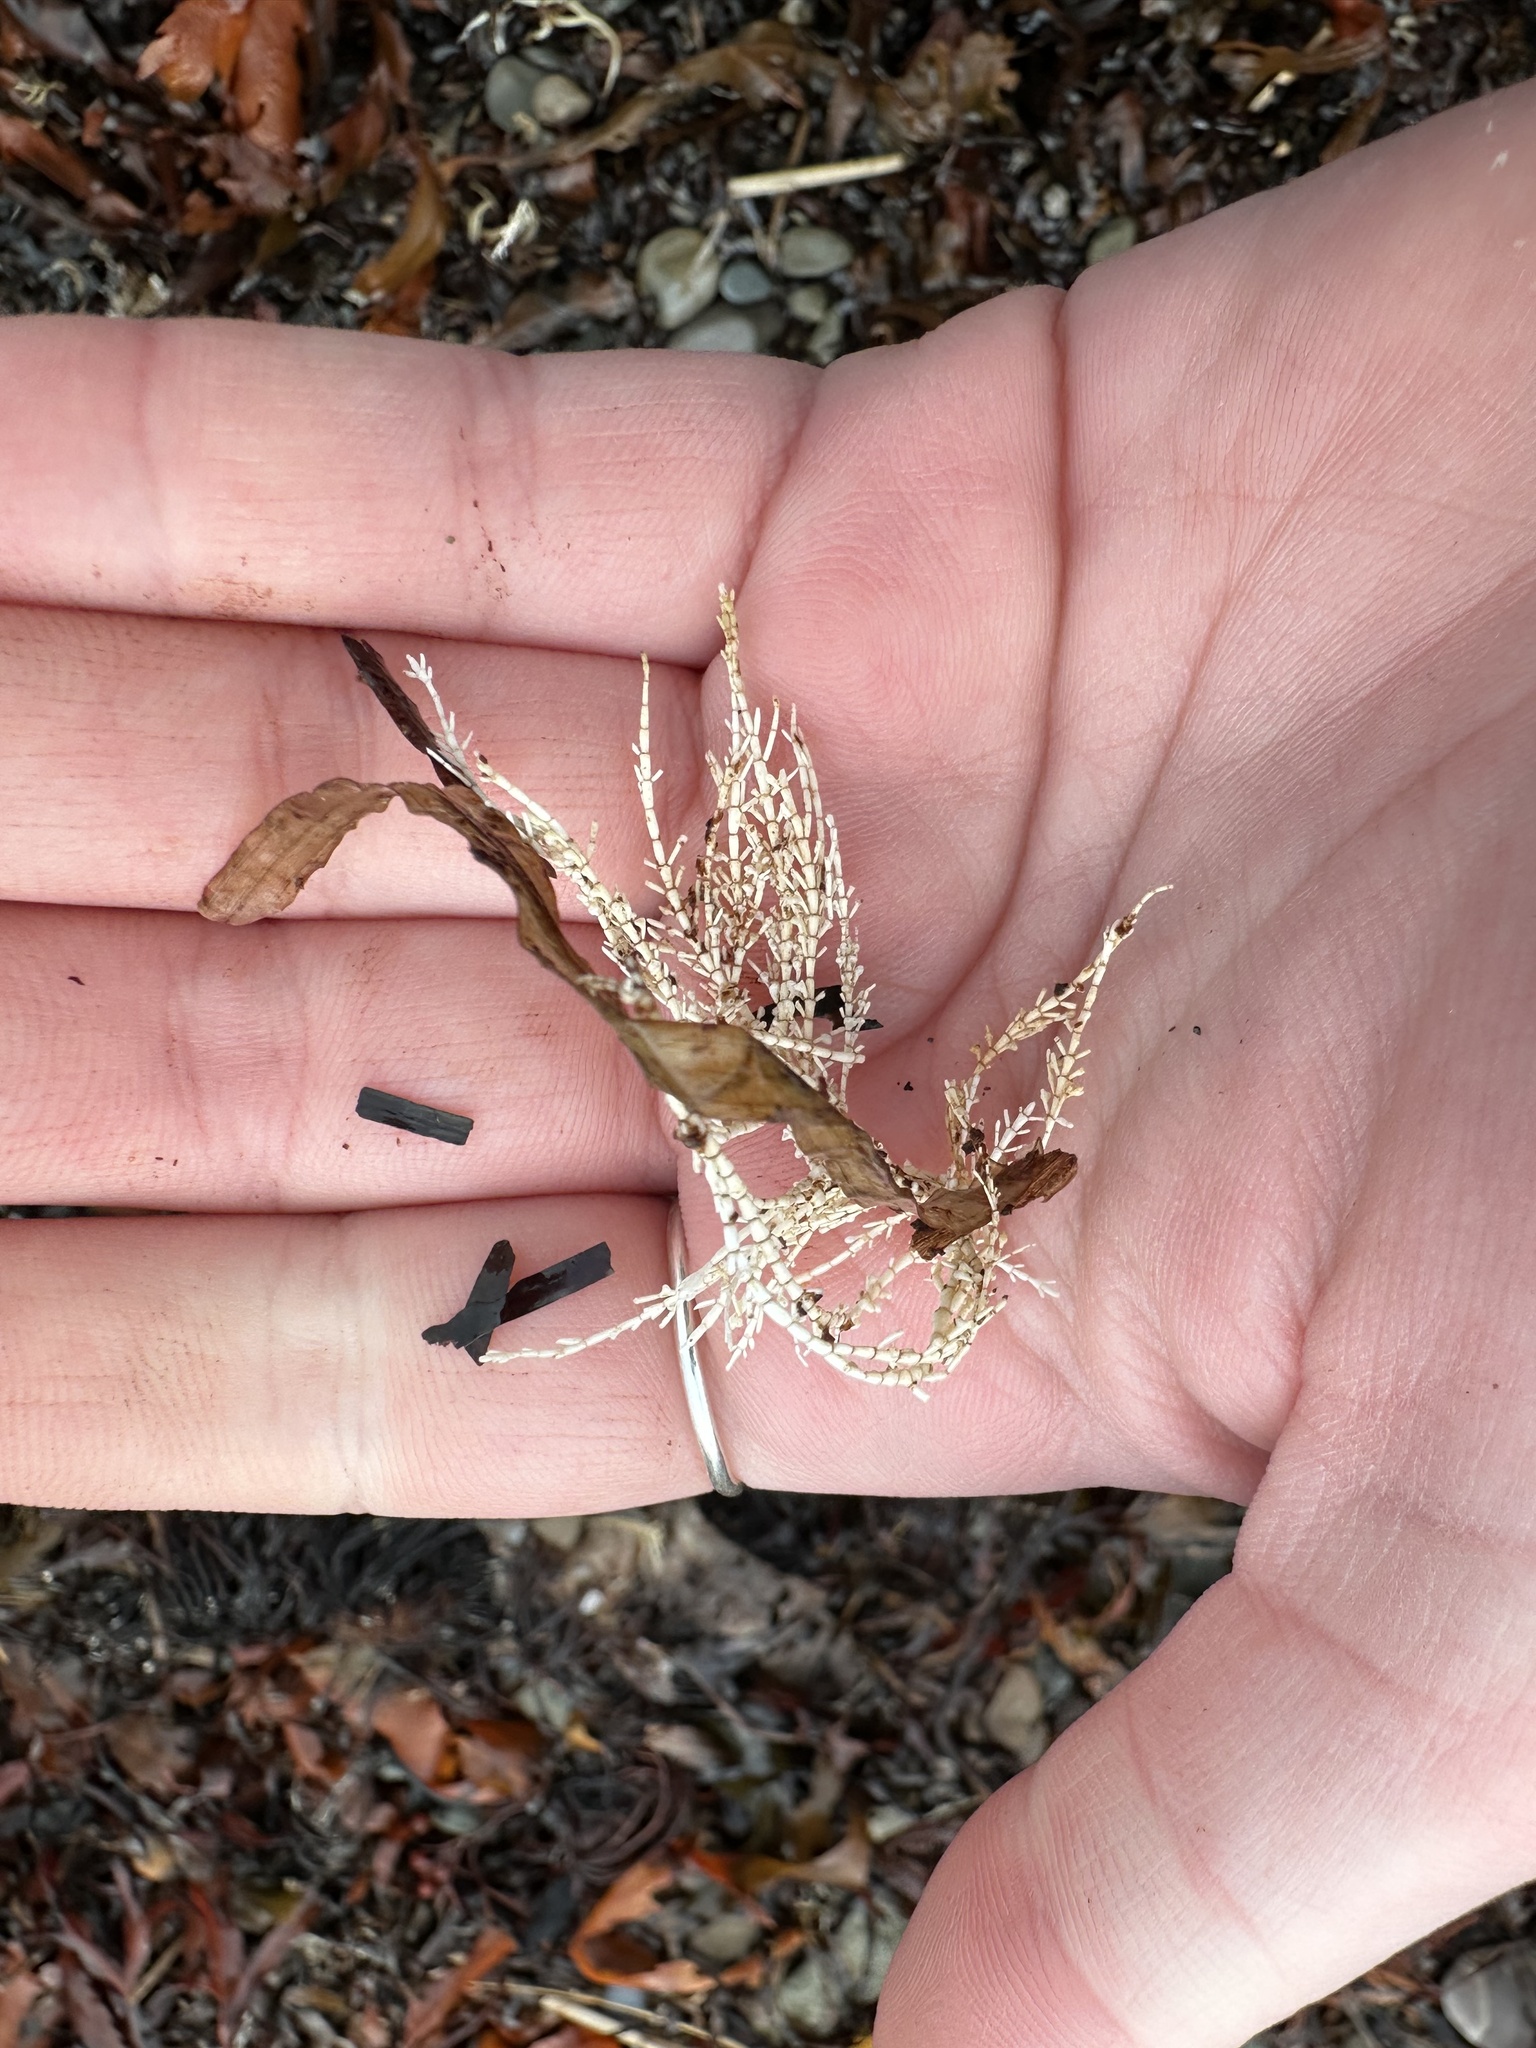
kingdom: Plantae
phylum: Rhodophyta
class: Florideophyceae
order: Corallinales
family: Corallinaceae
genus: Corallina
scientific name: Corallina officinalis
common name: Coral weed
